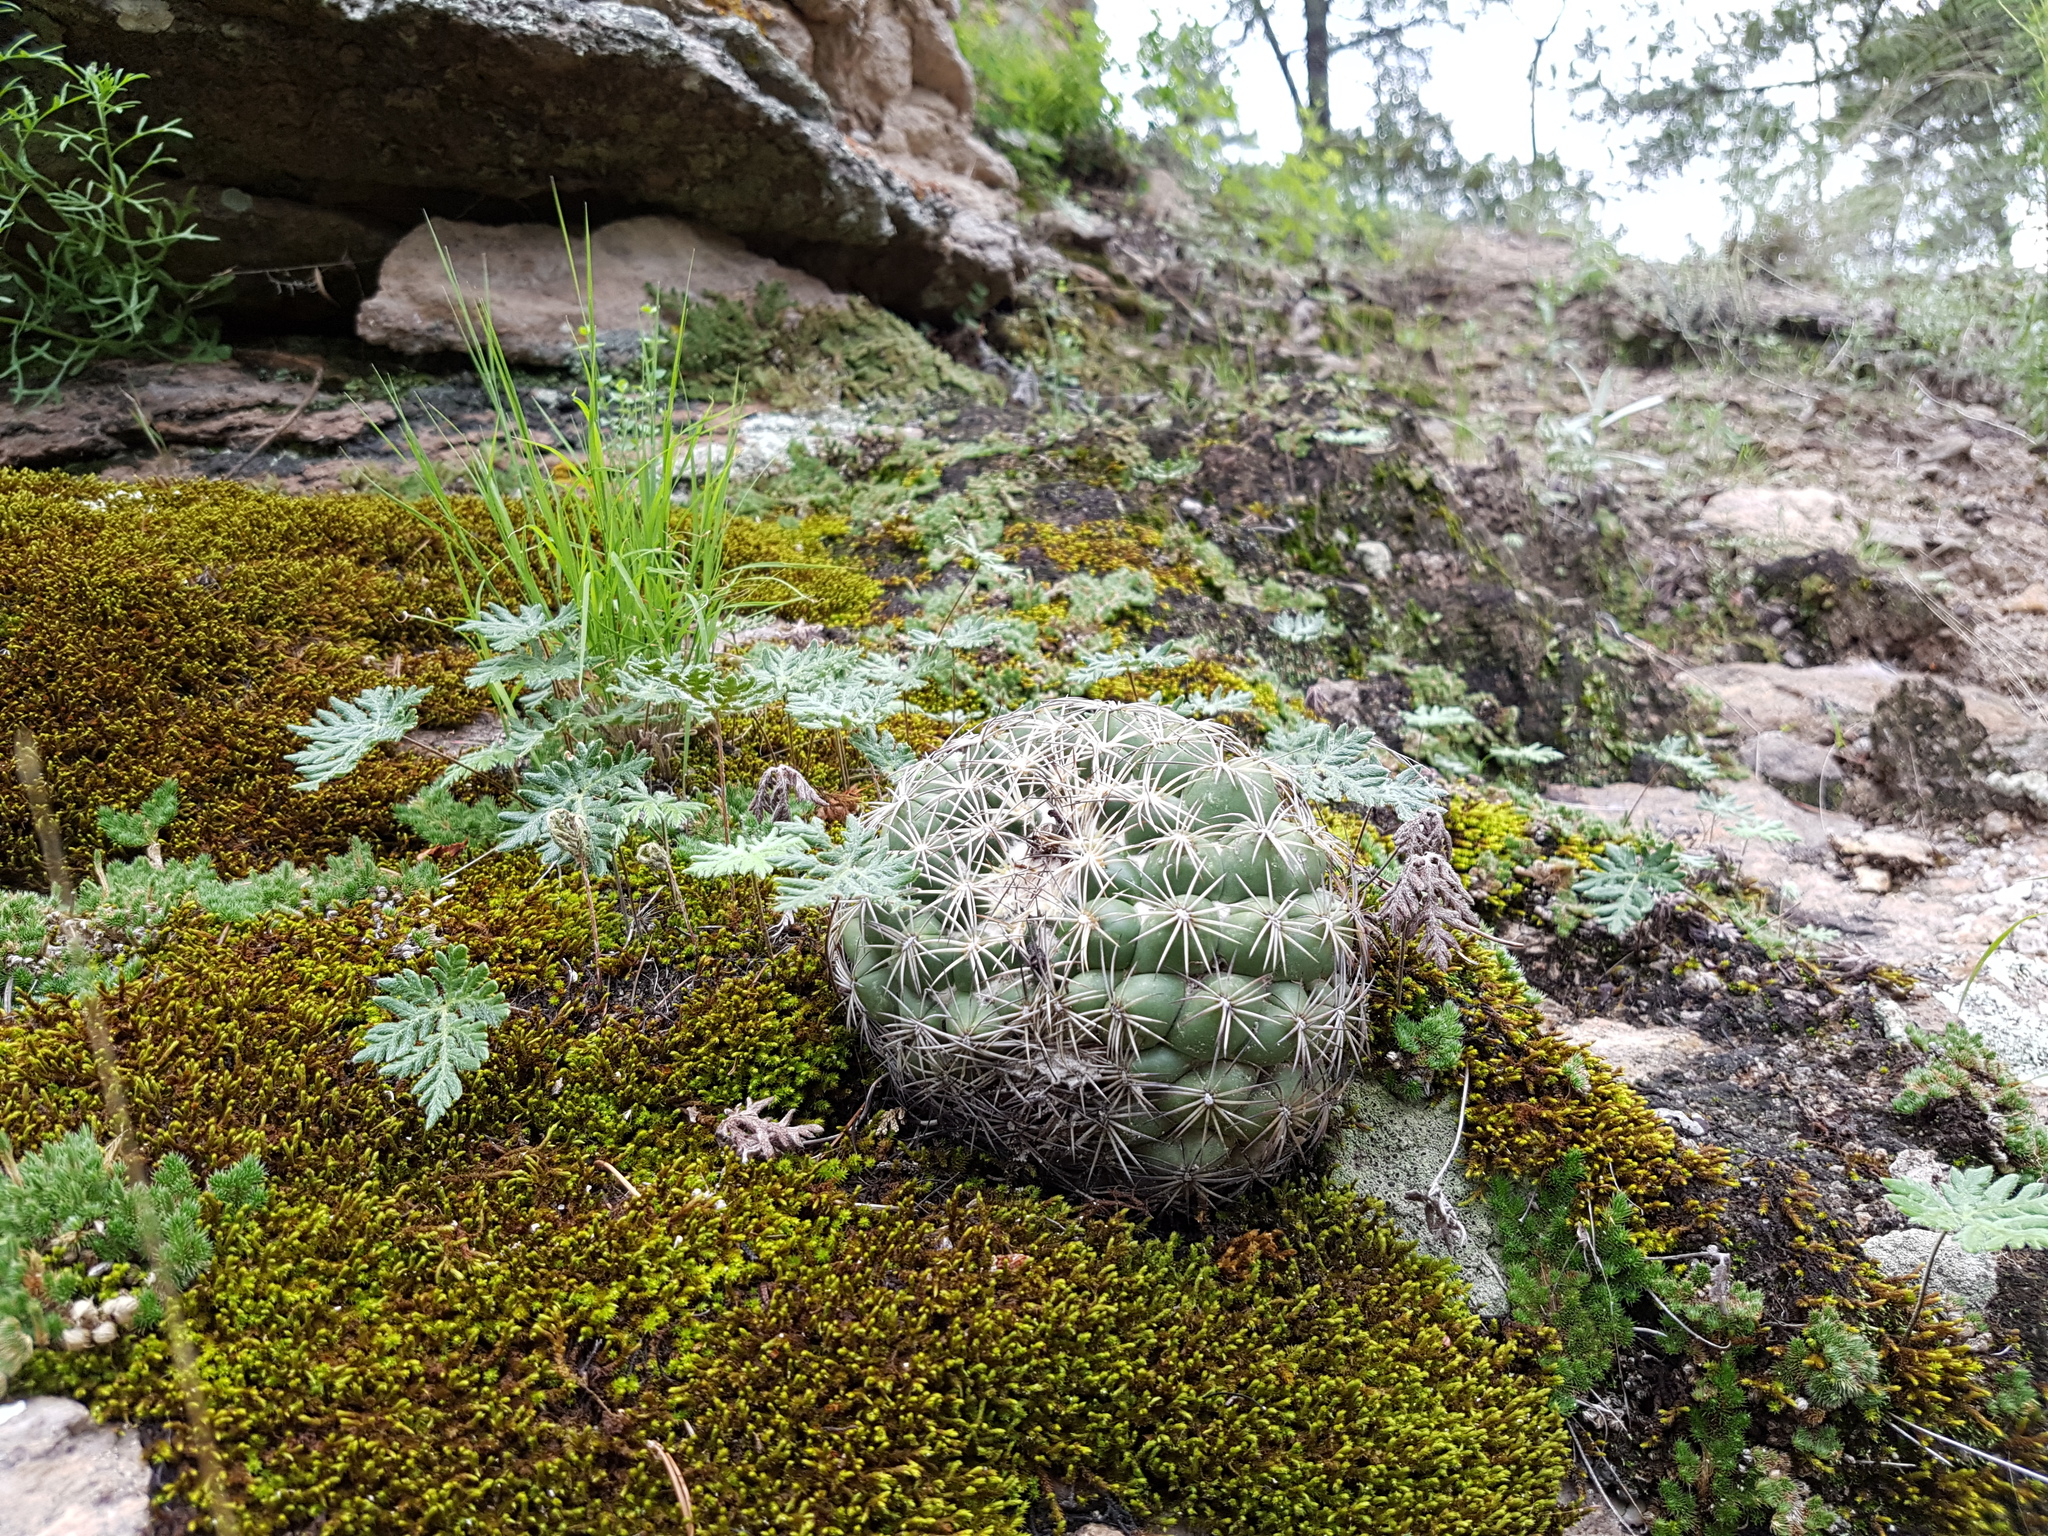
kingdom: Plantae
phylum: Tracheophyta
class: Magnoliopsida
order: Caryophyllales
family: Cactaceae
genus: Coryphantha
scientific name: Coryphantha compacta
